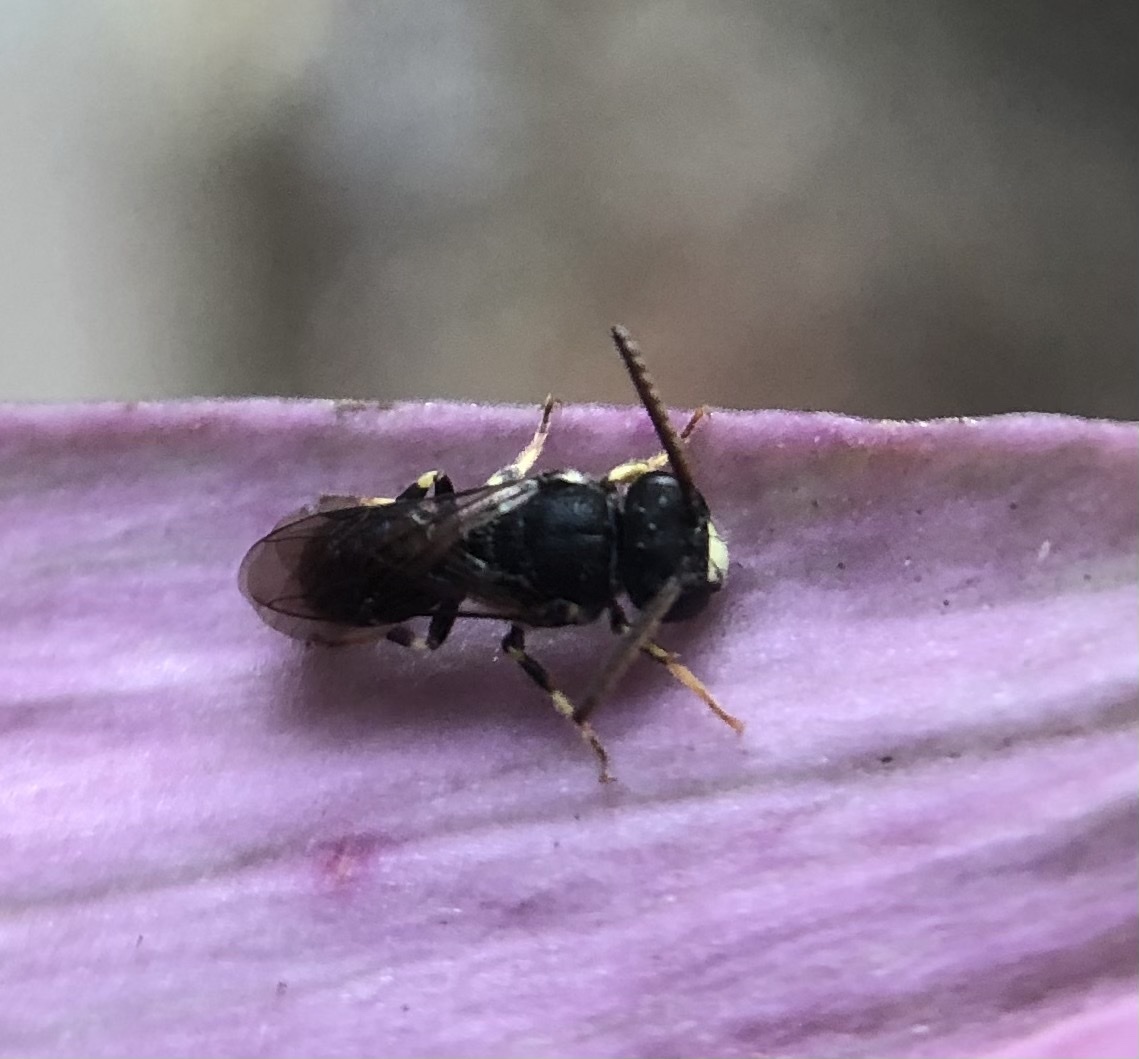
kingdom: Animalia
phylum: Arthropoda
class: Insecta
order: Hymenoptera
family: Colletidae
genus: Hylaeus
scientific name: Hylaeus punctatus
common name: Punctate masked bee
